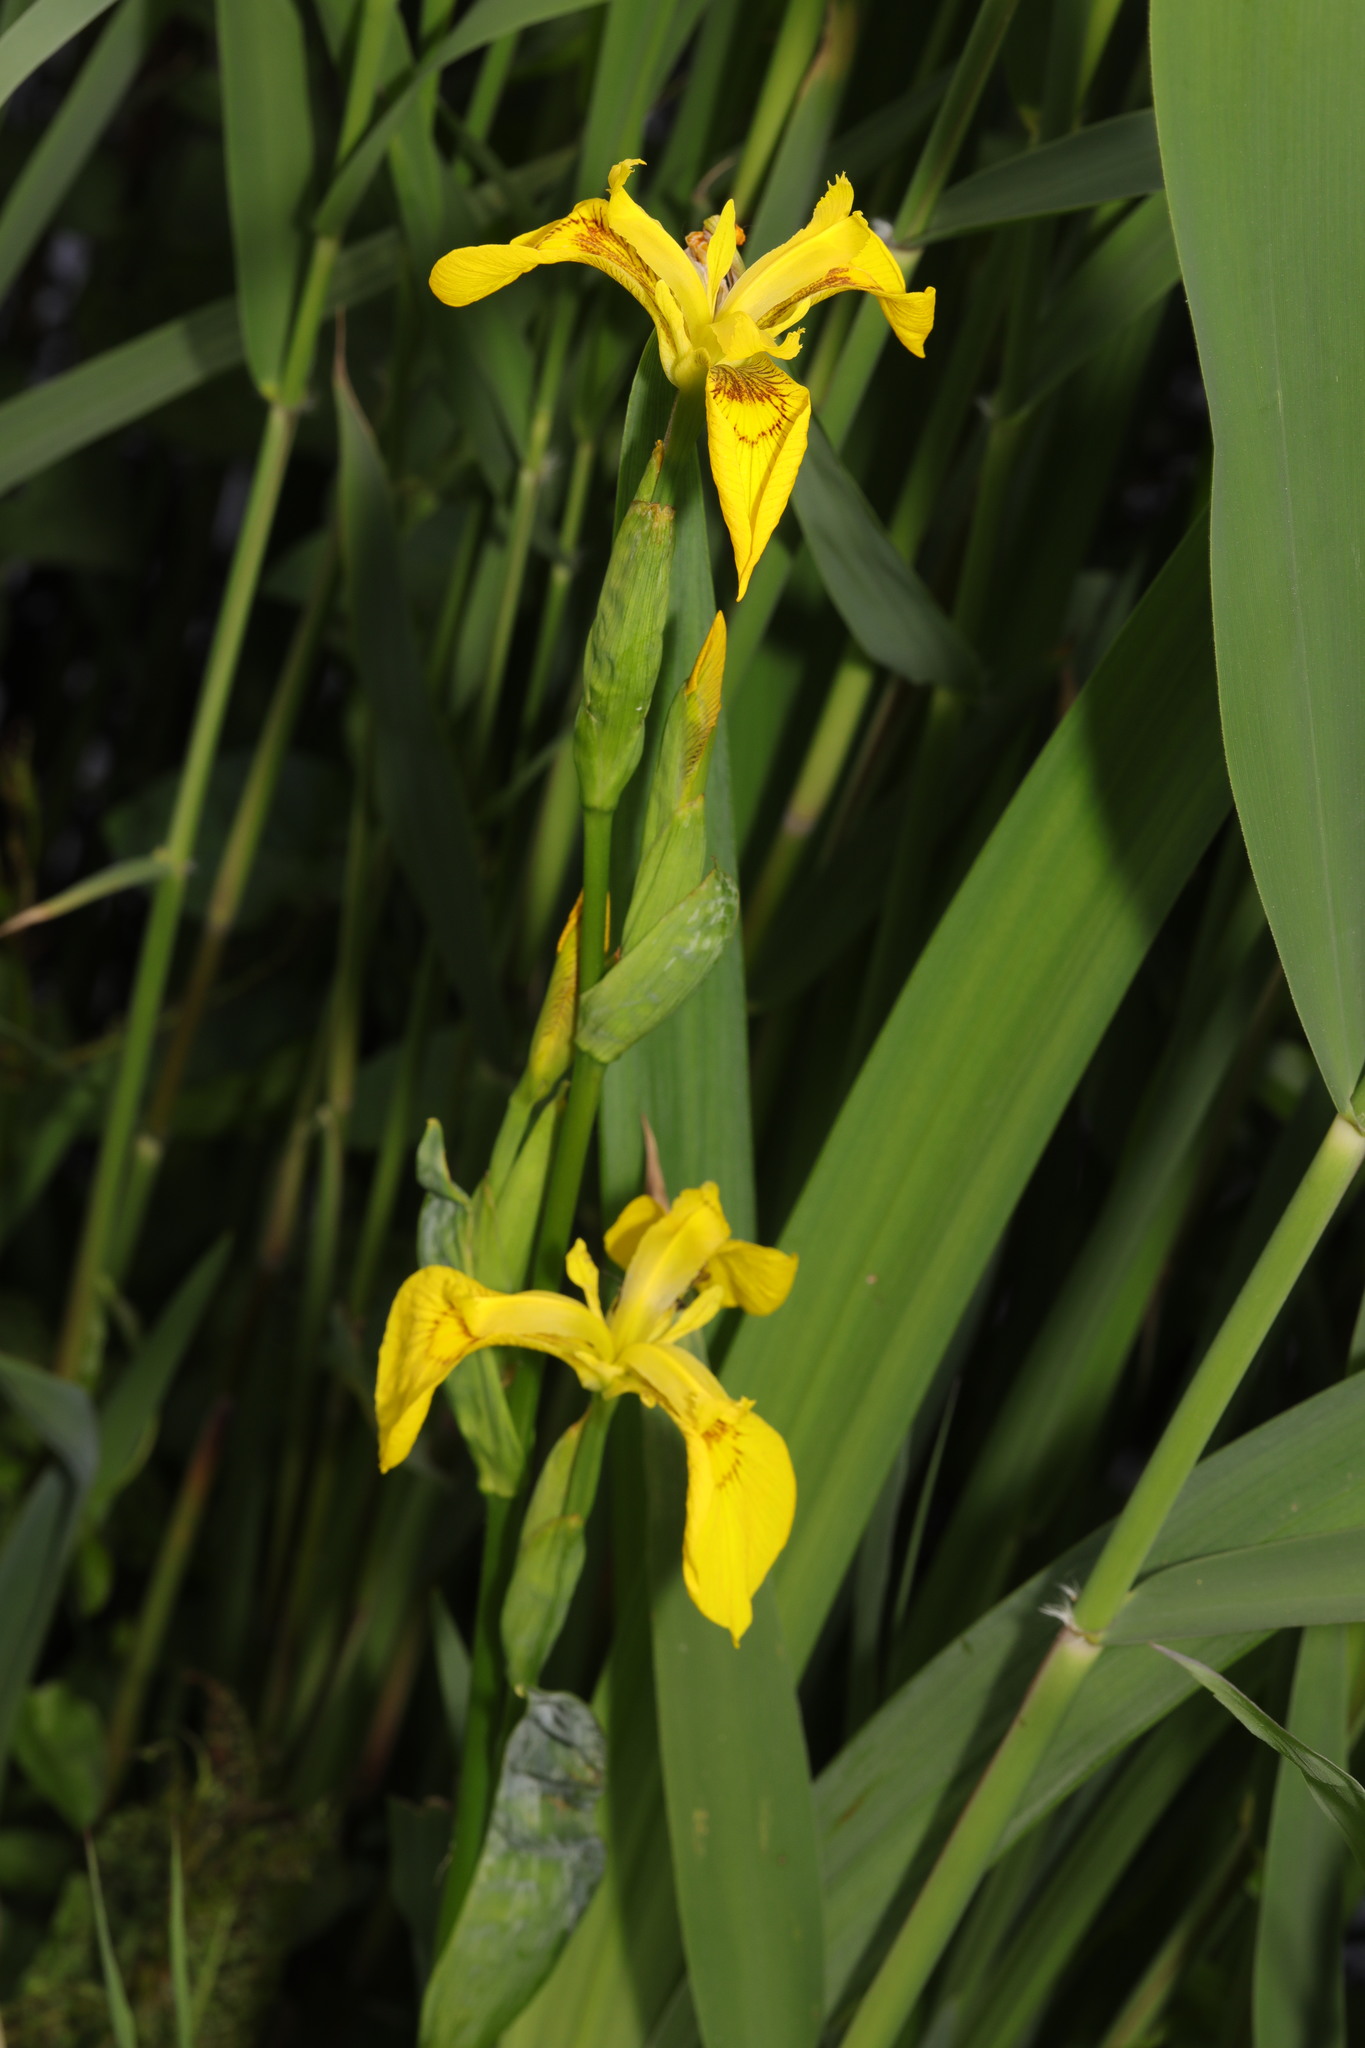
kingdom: Plantae
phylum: Tracheophyta
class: Liliopsida
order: Asparagales
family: Iridaceae
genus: Iris
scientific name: Iris pseudacorus
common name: Yellow flag
